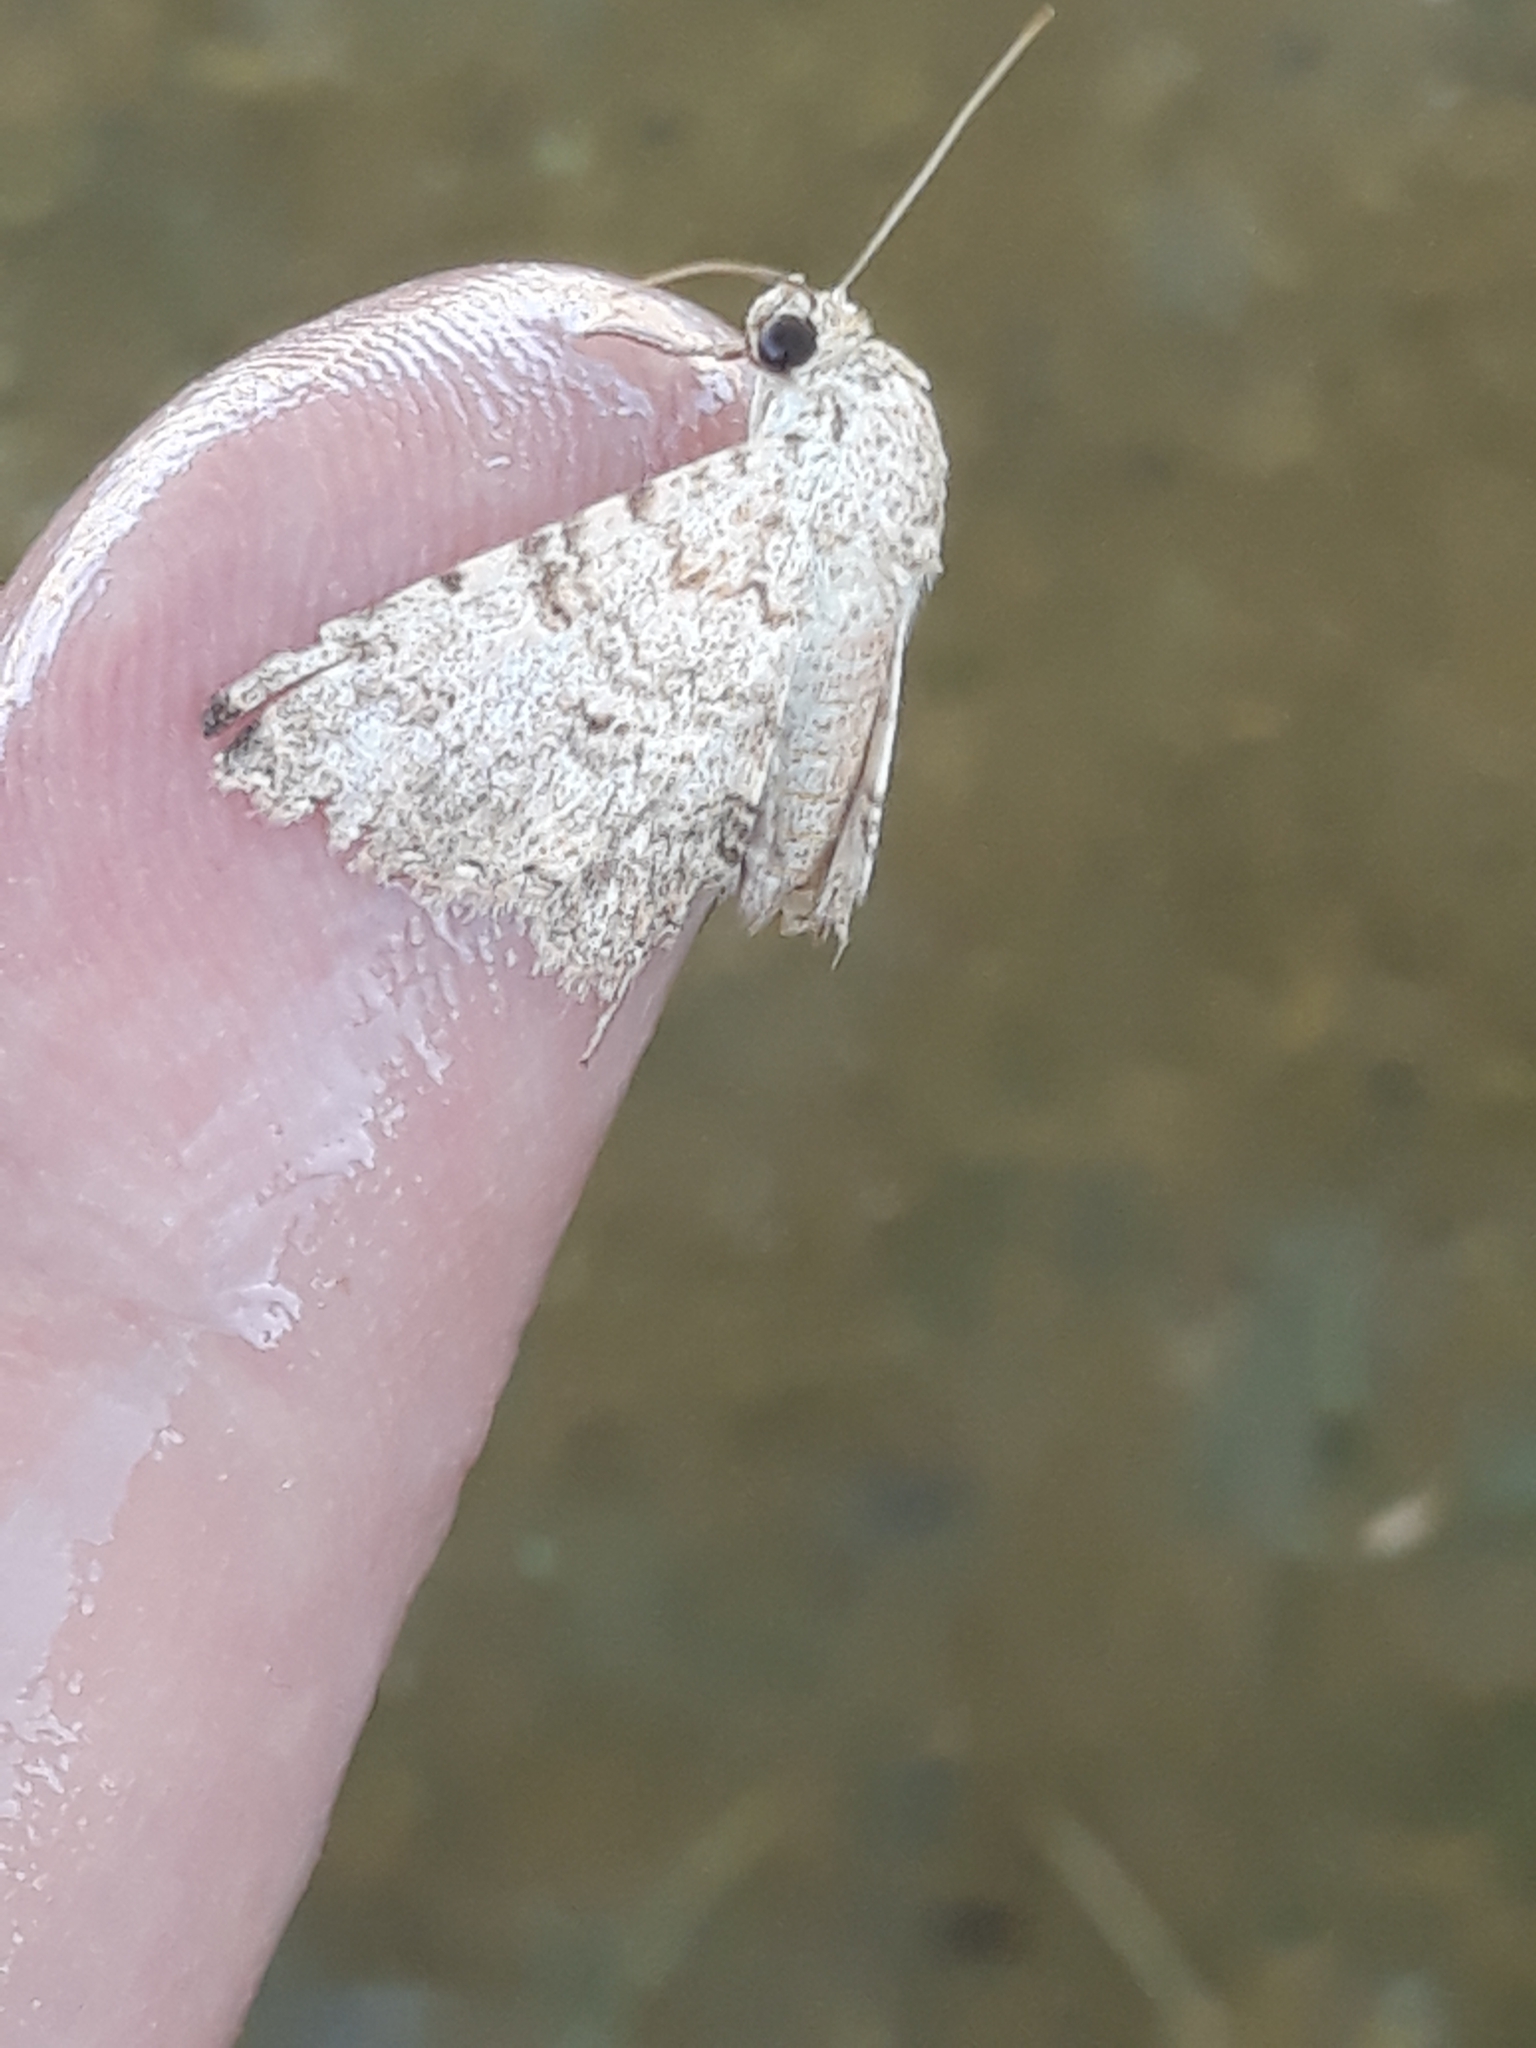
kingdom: Animalia
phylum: Arthropoda
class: Insecta
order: Lepidoptera
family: Erebidae
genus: Homaea
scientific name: Homaea
